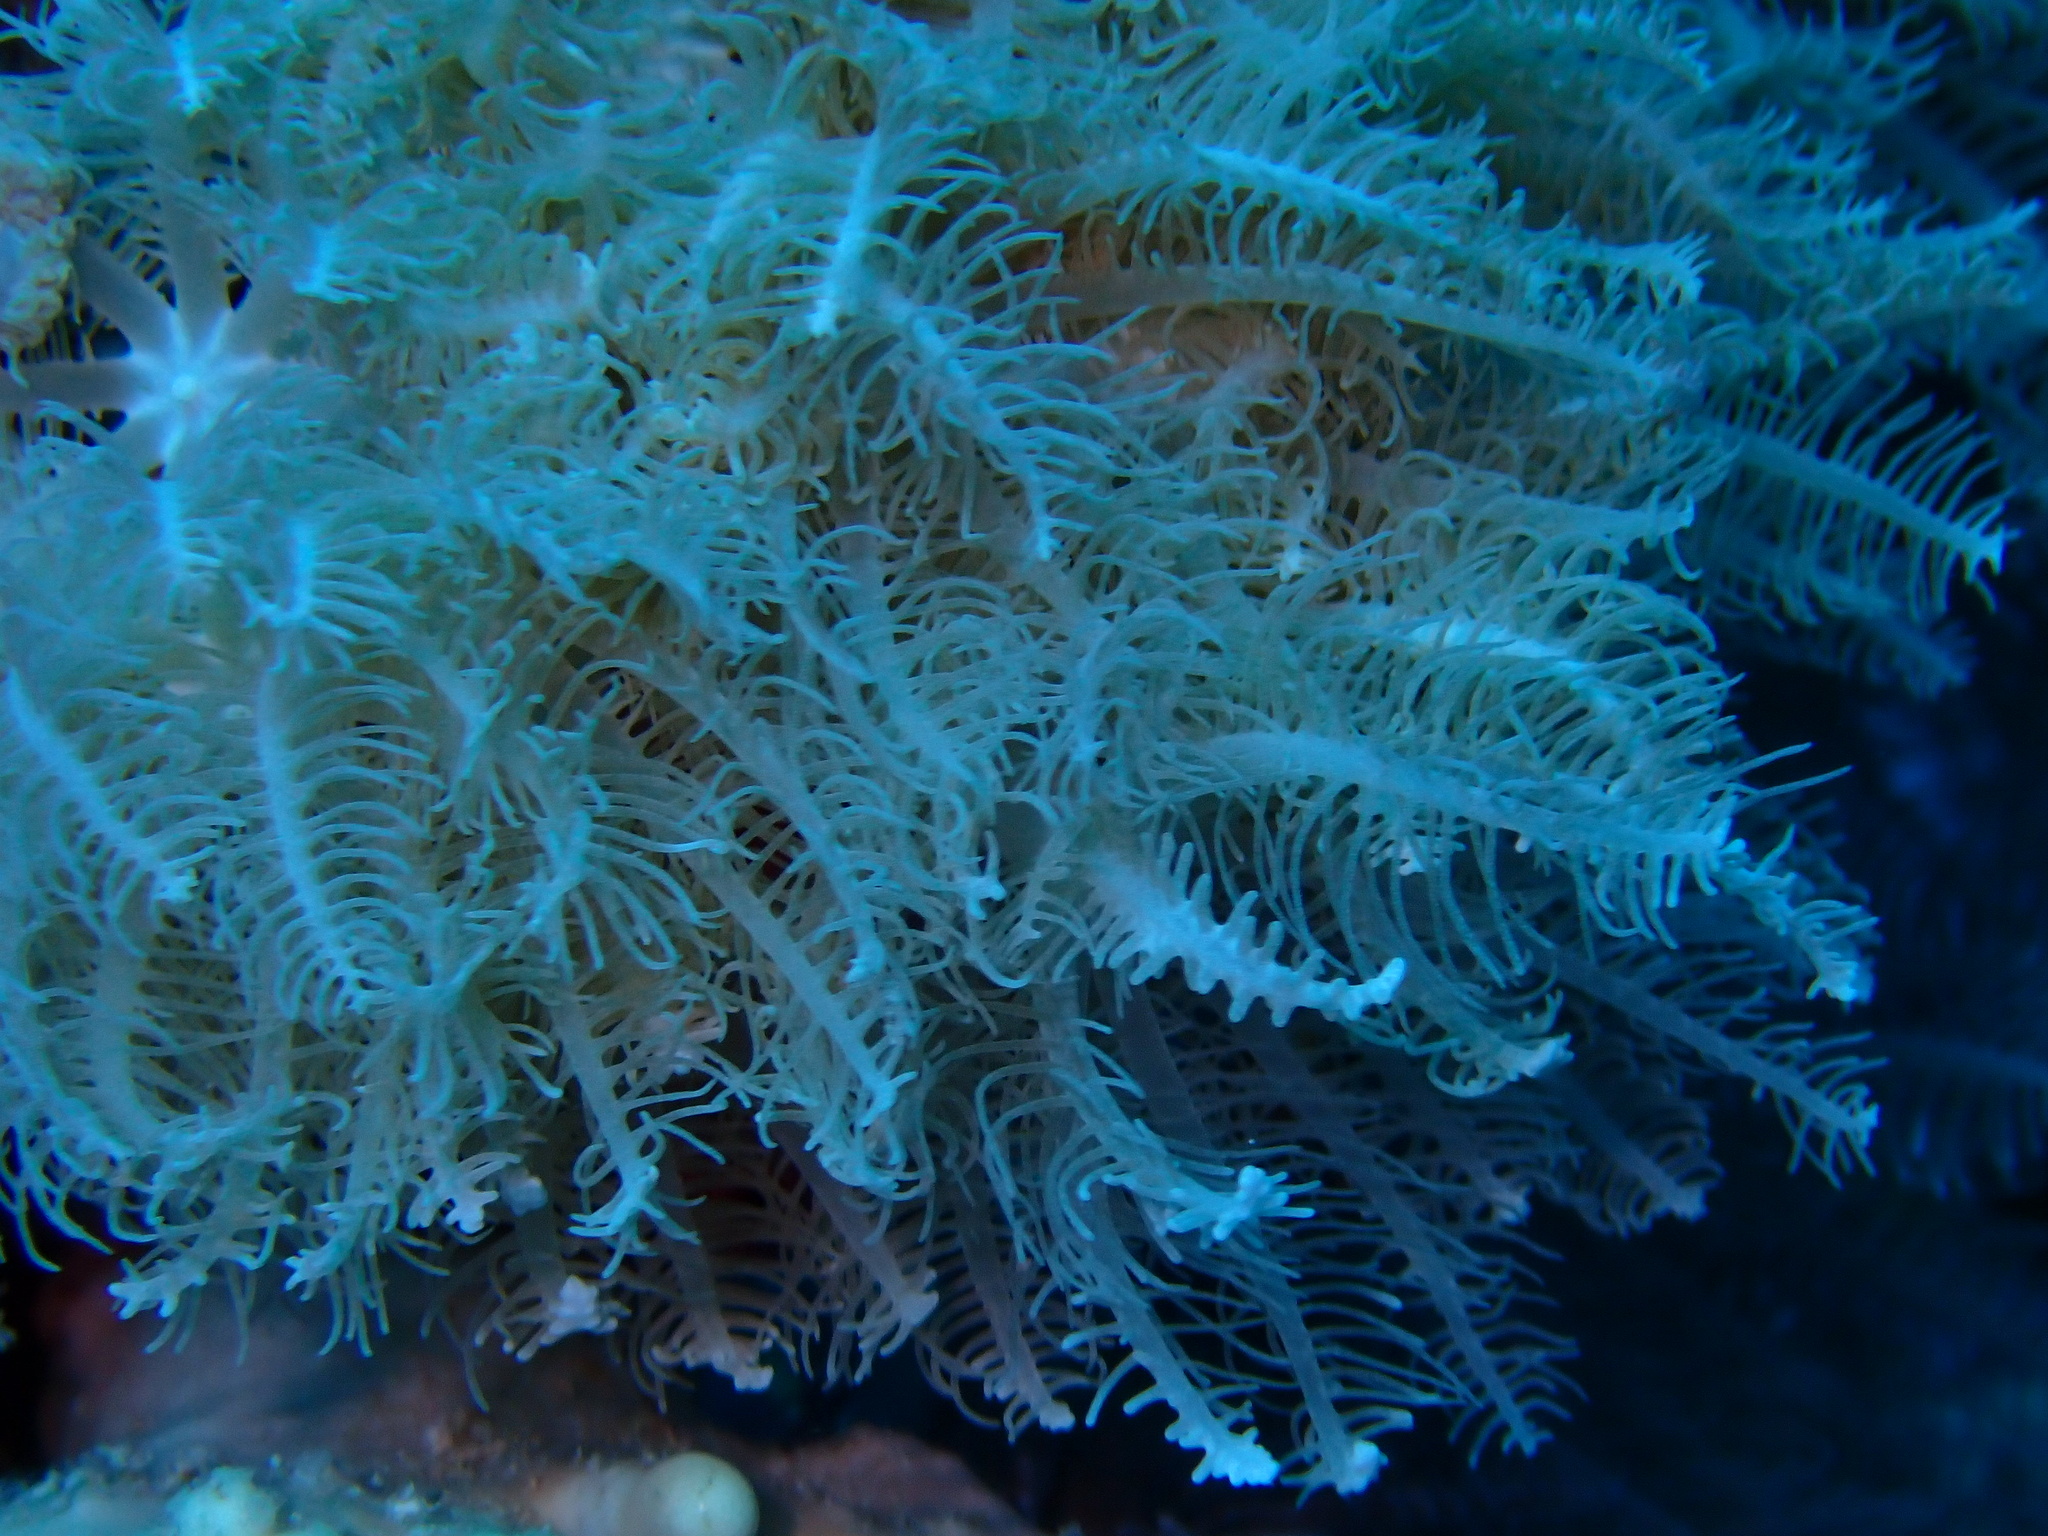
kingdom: Animalia
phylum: Cnidaria
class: Anthozoa
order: Malacalcyonacea
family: Xeniidae
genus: Anthelia
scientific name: Anthelia glauca
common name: Pulse coral
